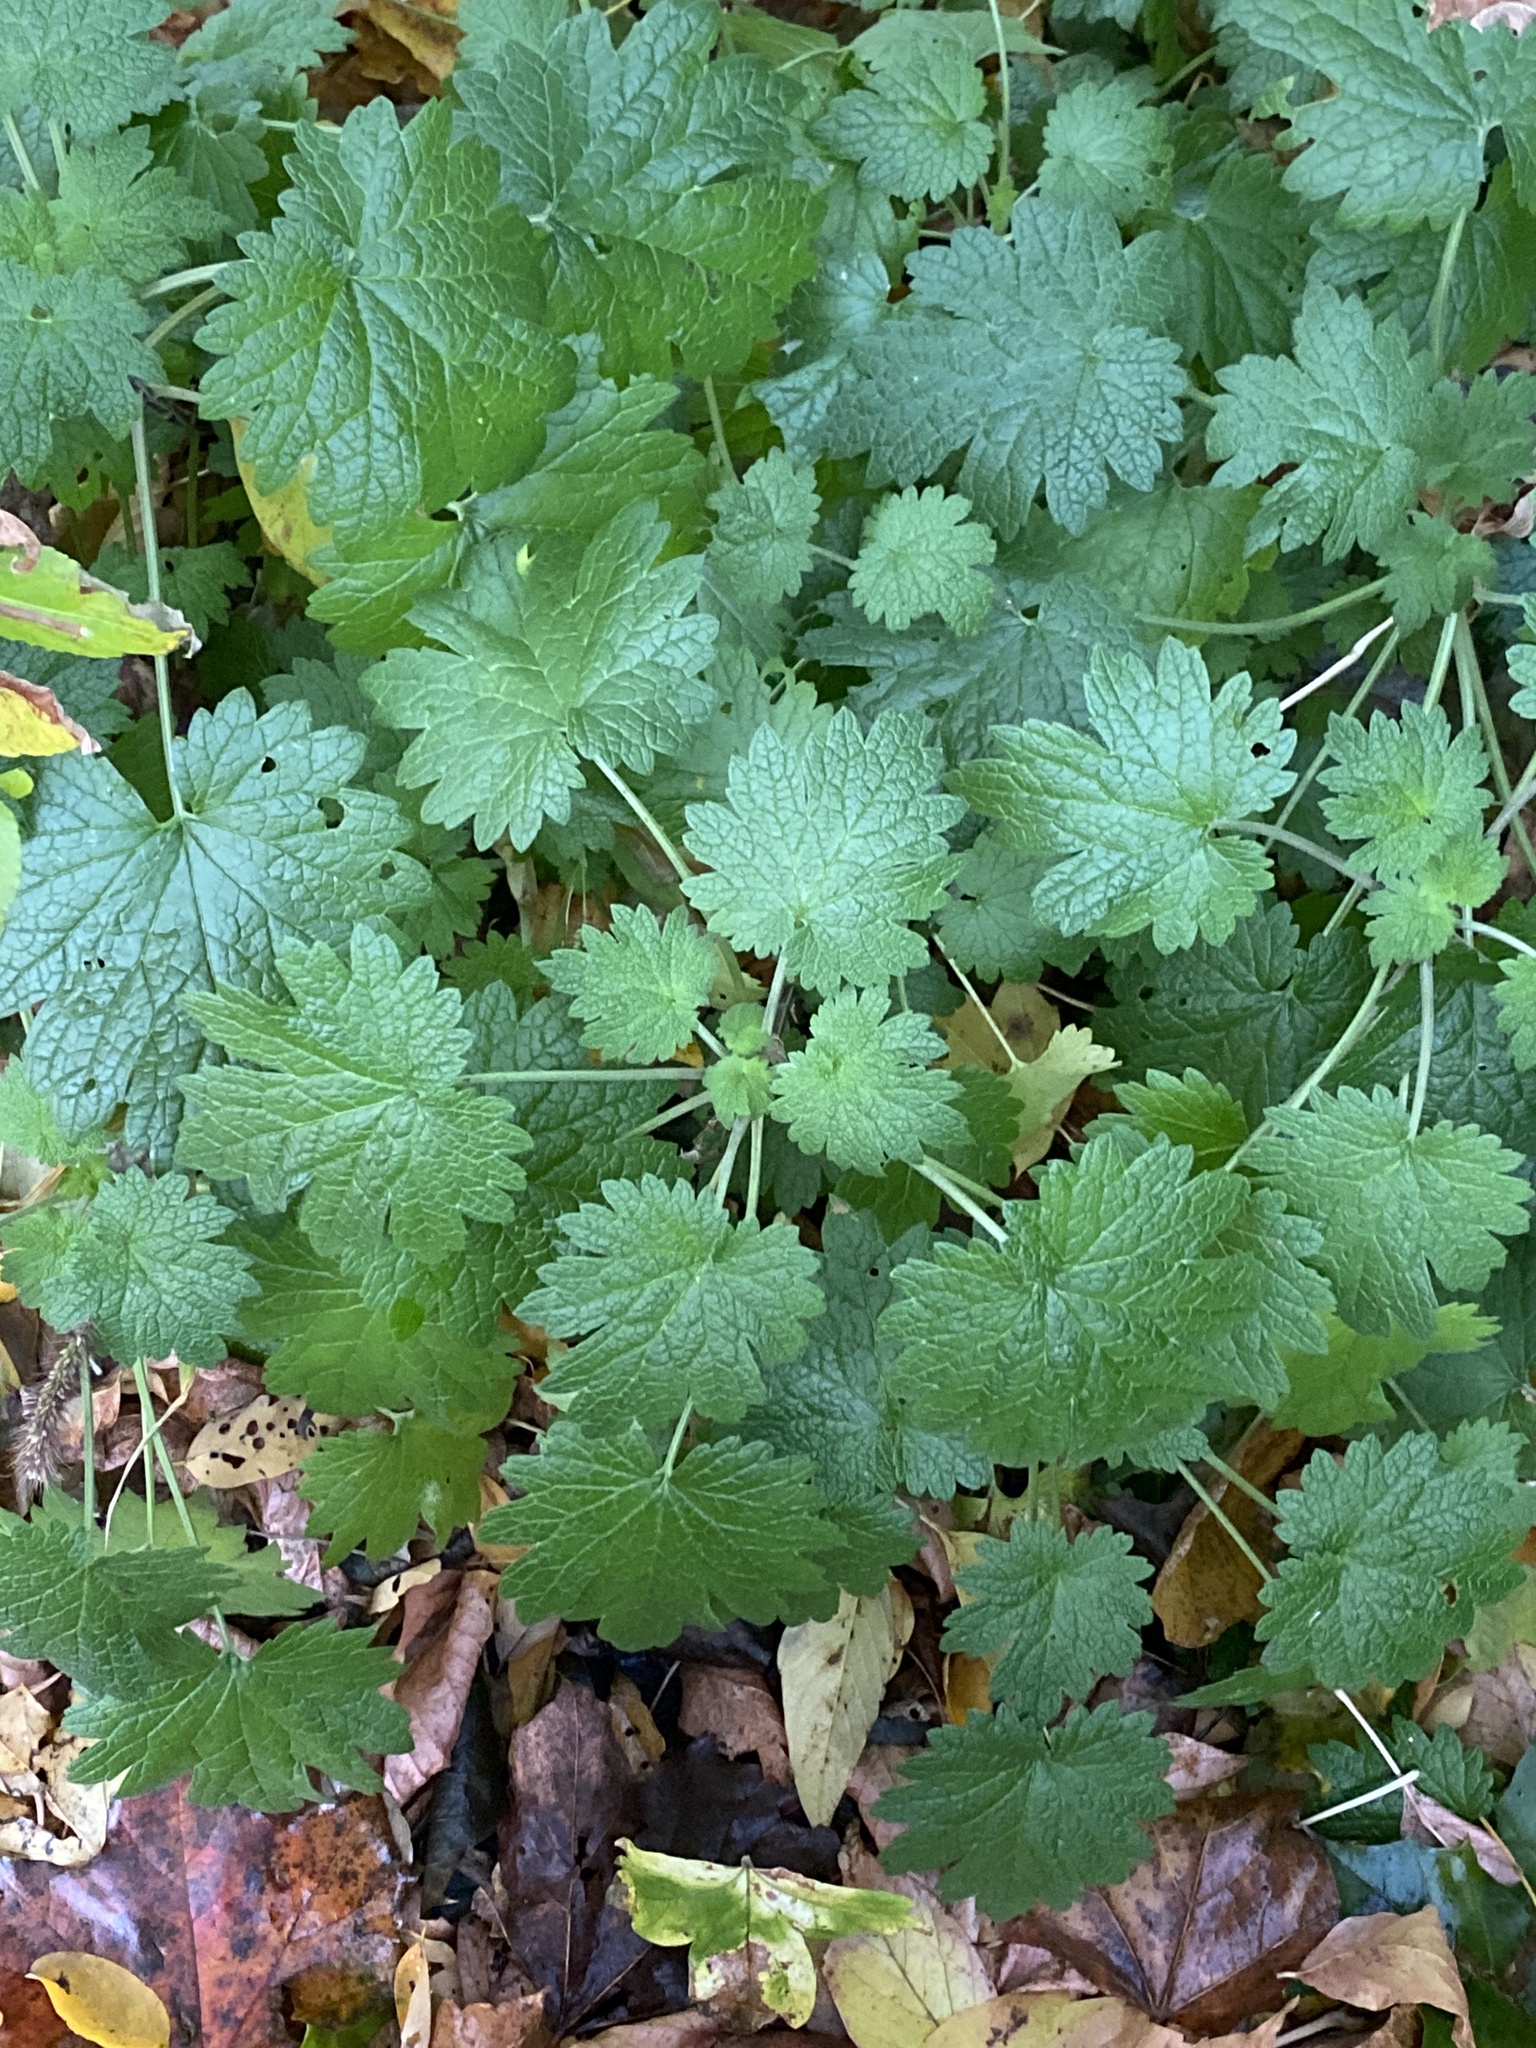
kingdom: Plantae
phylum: Tracheophyta
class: Magnoliopsida
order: Lamiales
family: Lamiaceae
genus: Leonurus
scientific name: Leonurus cardiaca
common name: Motherwort
